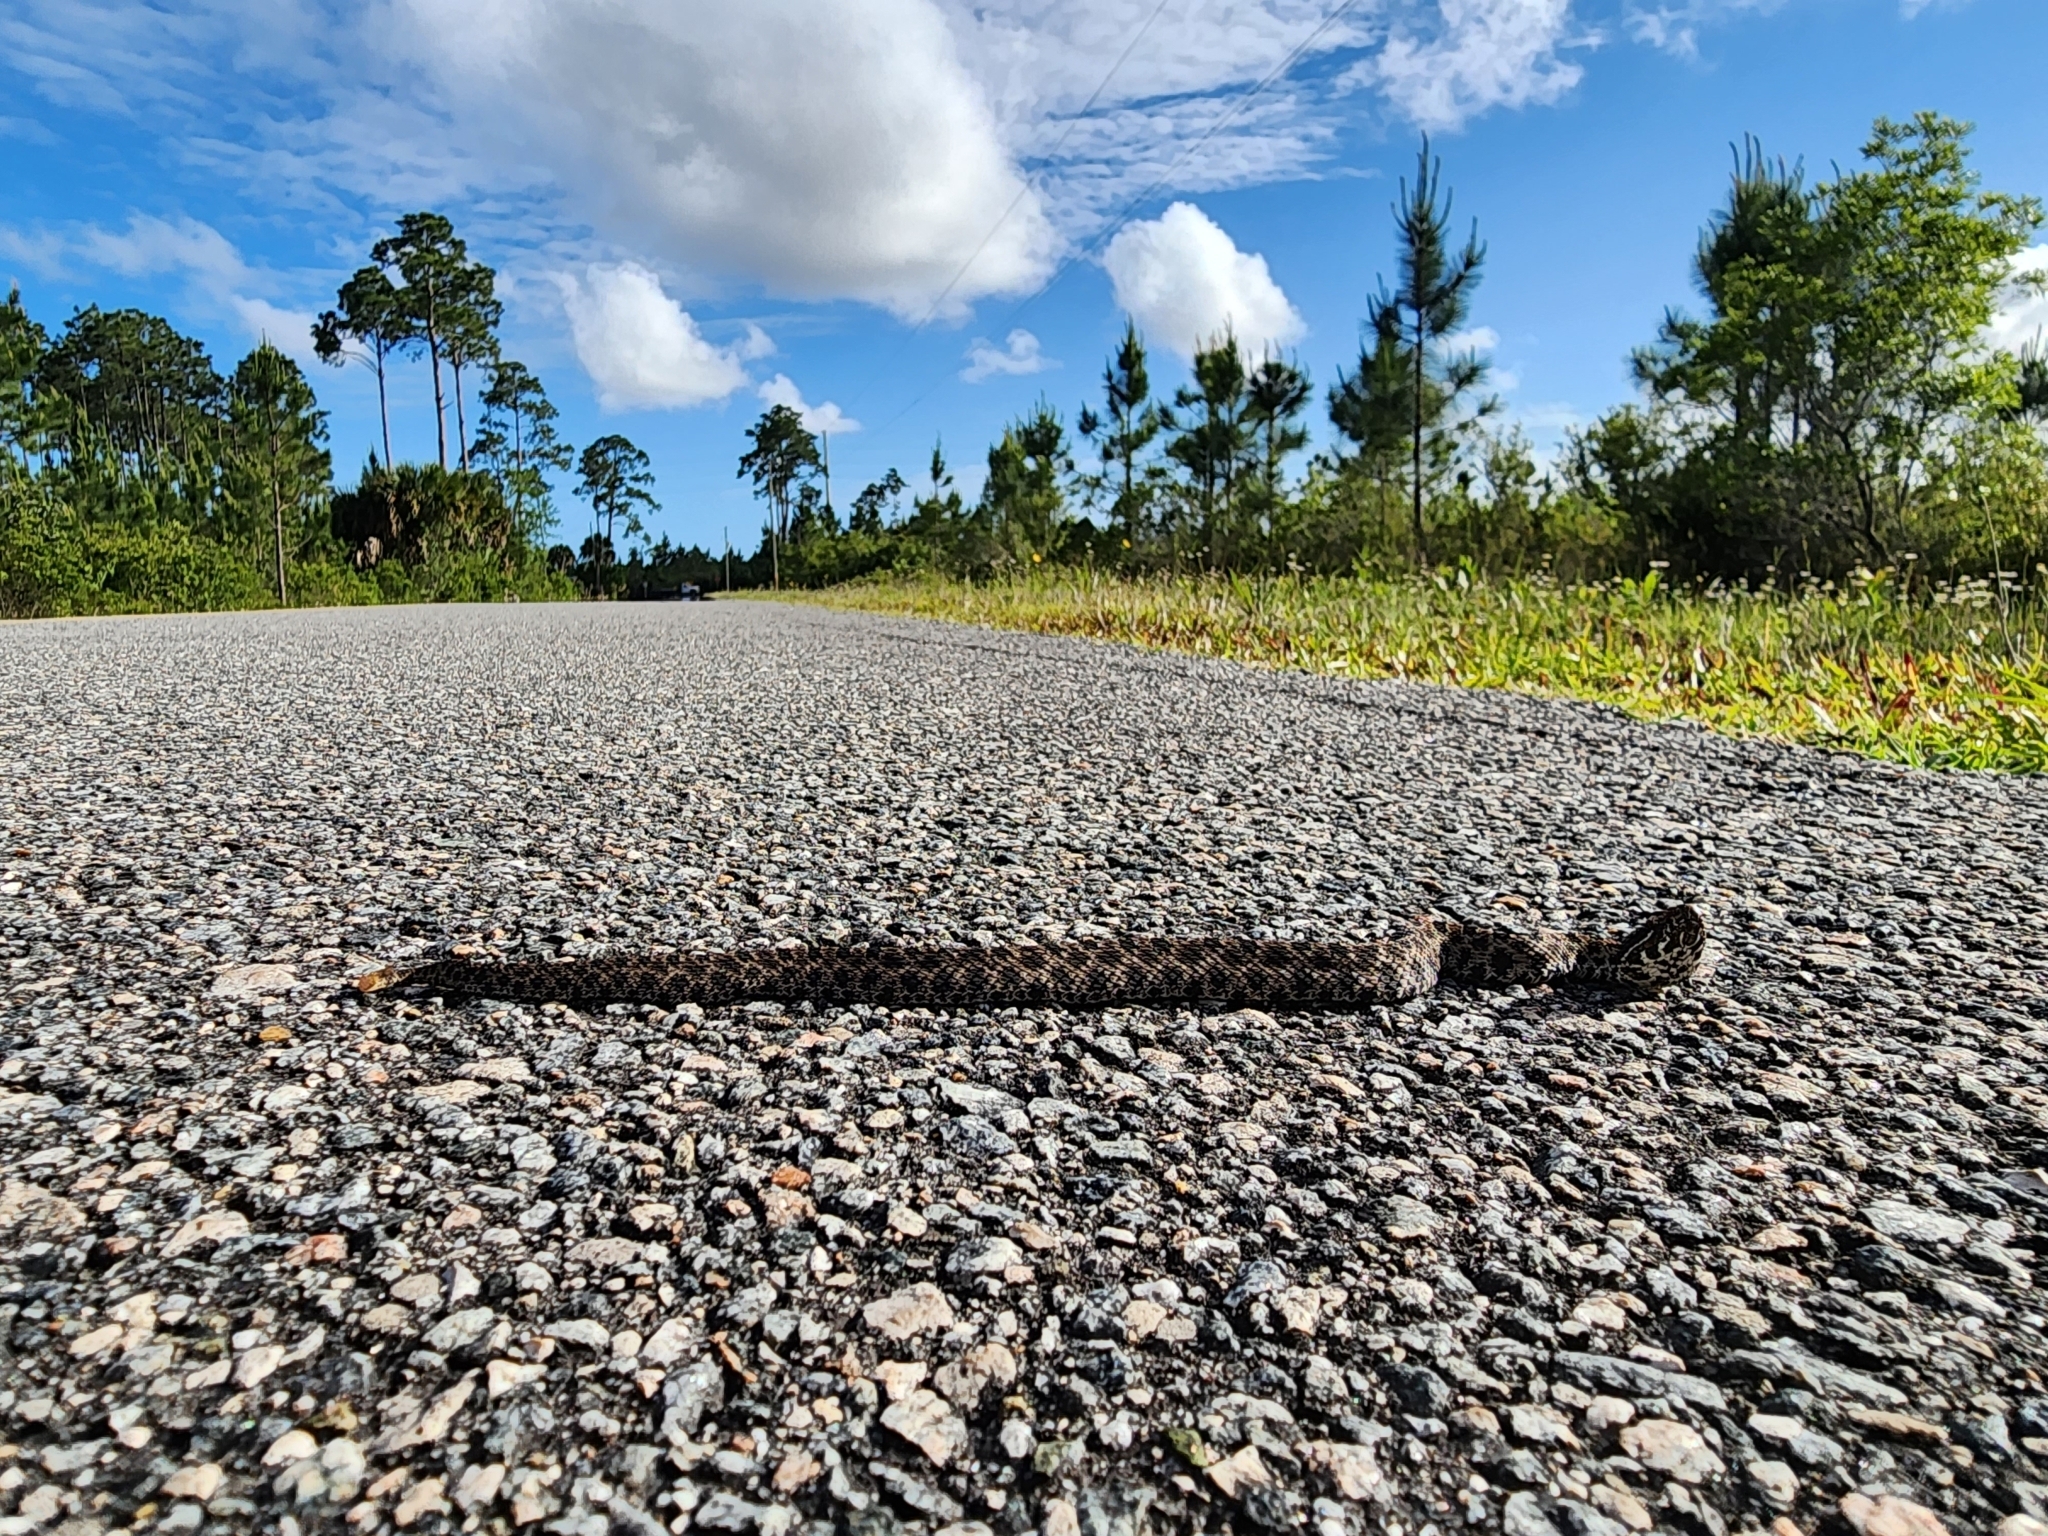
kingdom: Animalia
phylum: Chordata
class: Squamata
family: Viperidae
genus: Sistrurus
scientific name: Sistrurus miliarius
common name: Pygmy rattlesnake
